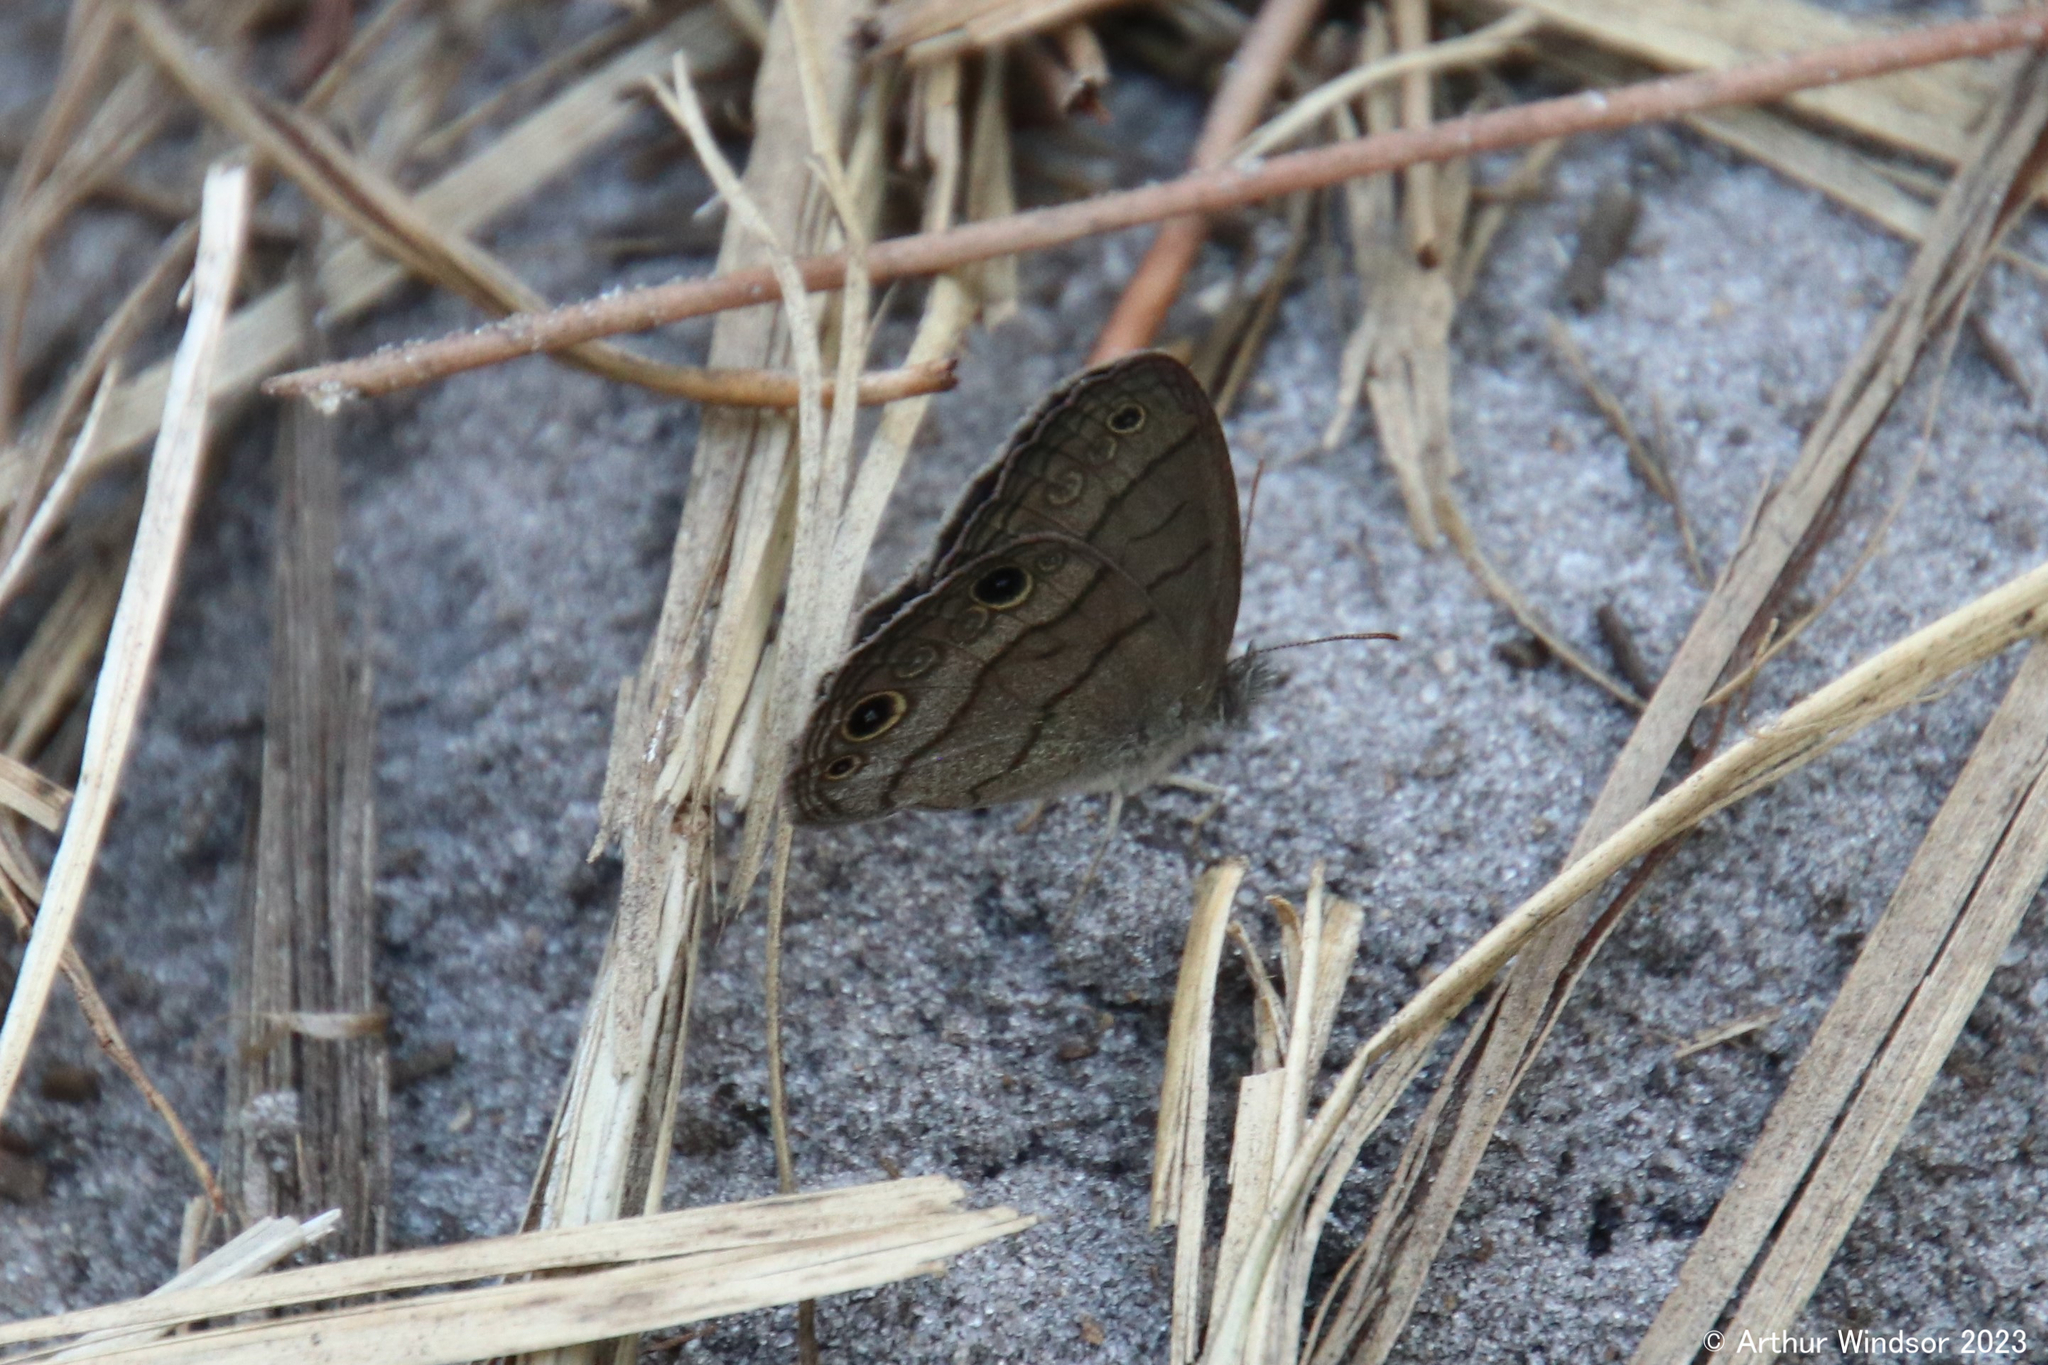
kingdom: Animalia
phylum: Arthropoda
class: Insecta
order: Lepidoptera
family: Nymphalidae
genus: Hermeuptychia
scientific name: Hermeuptychia hermes
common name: Hermes satyr
